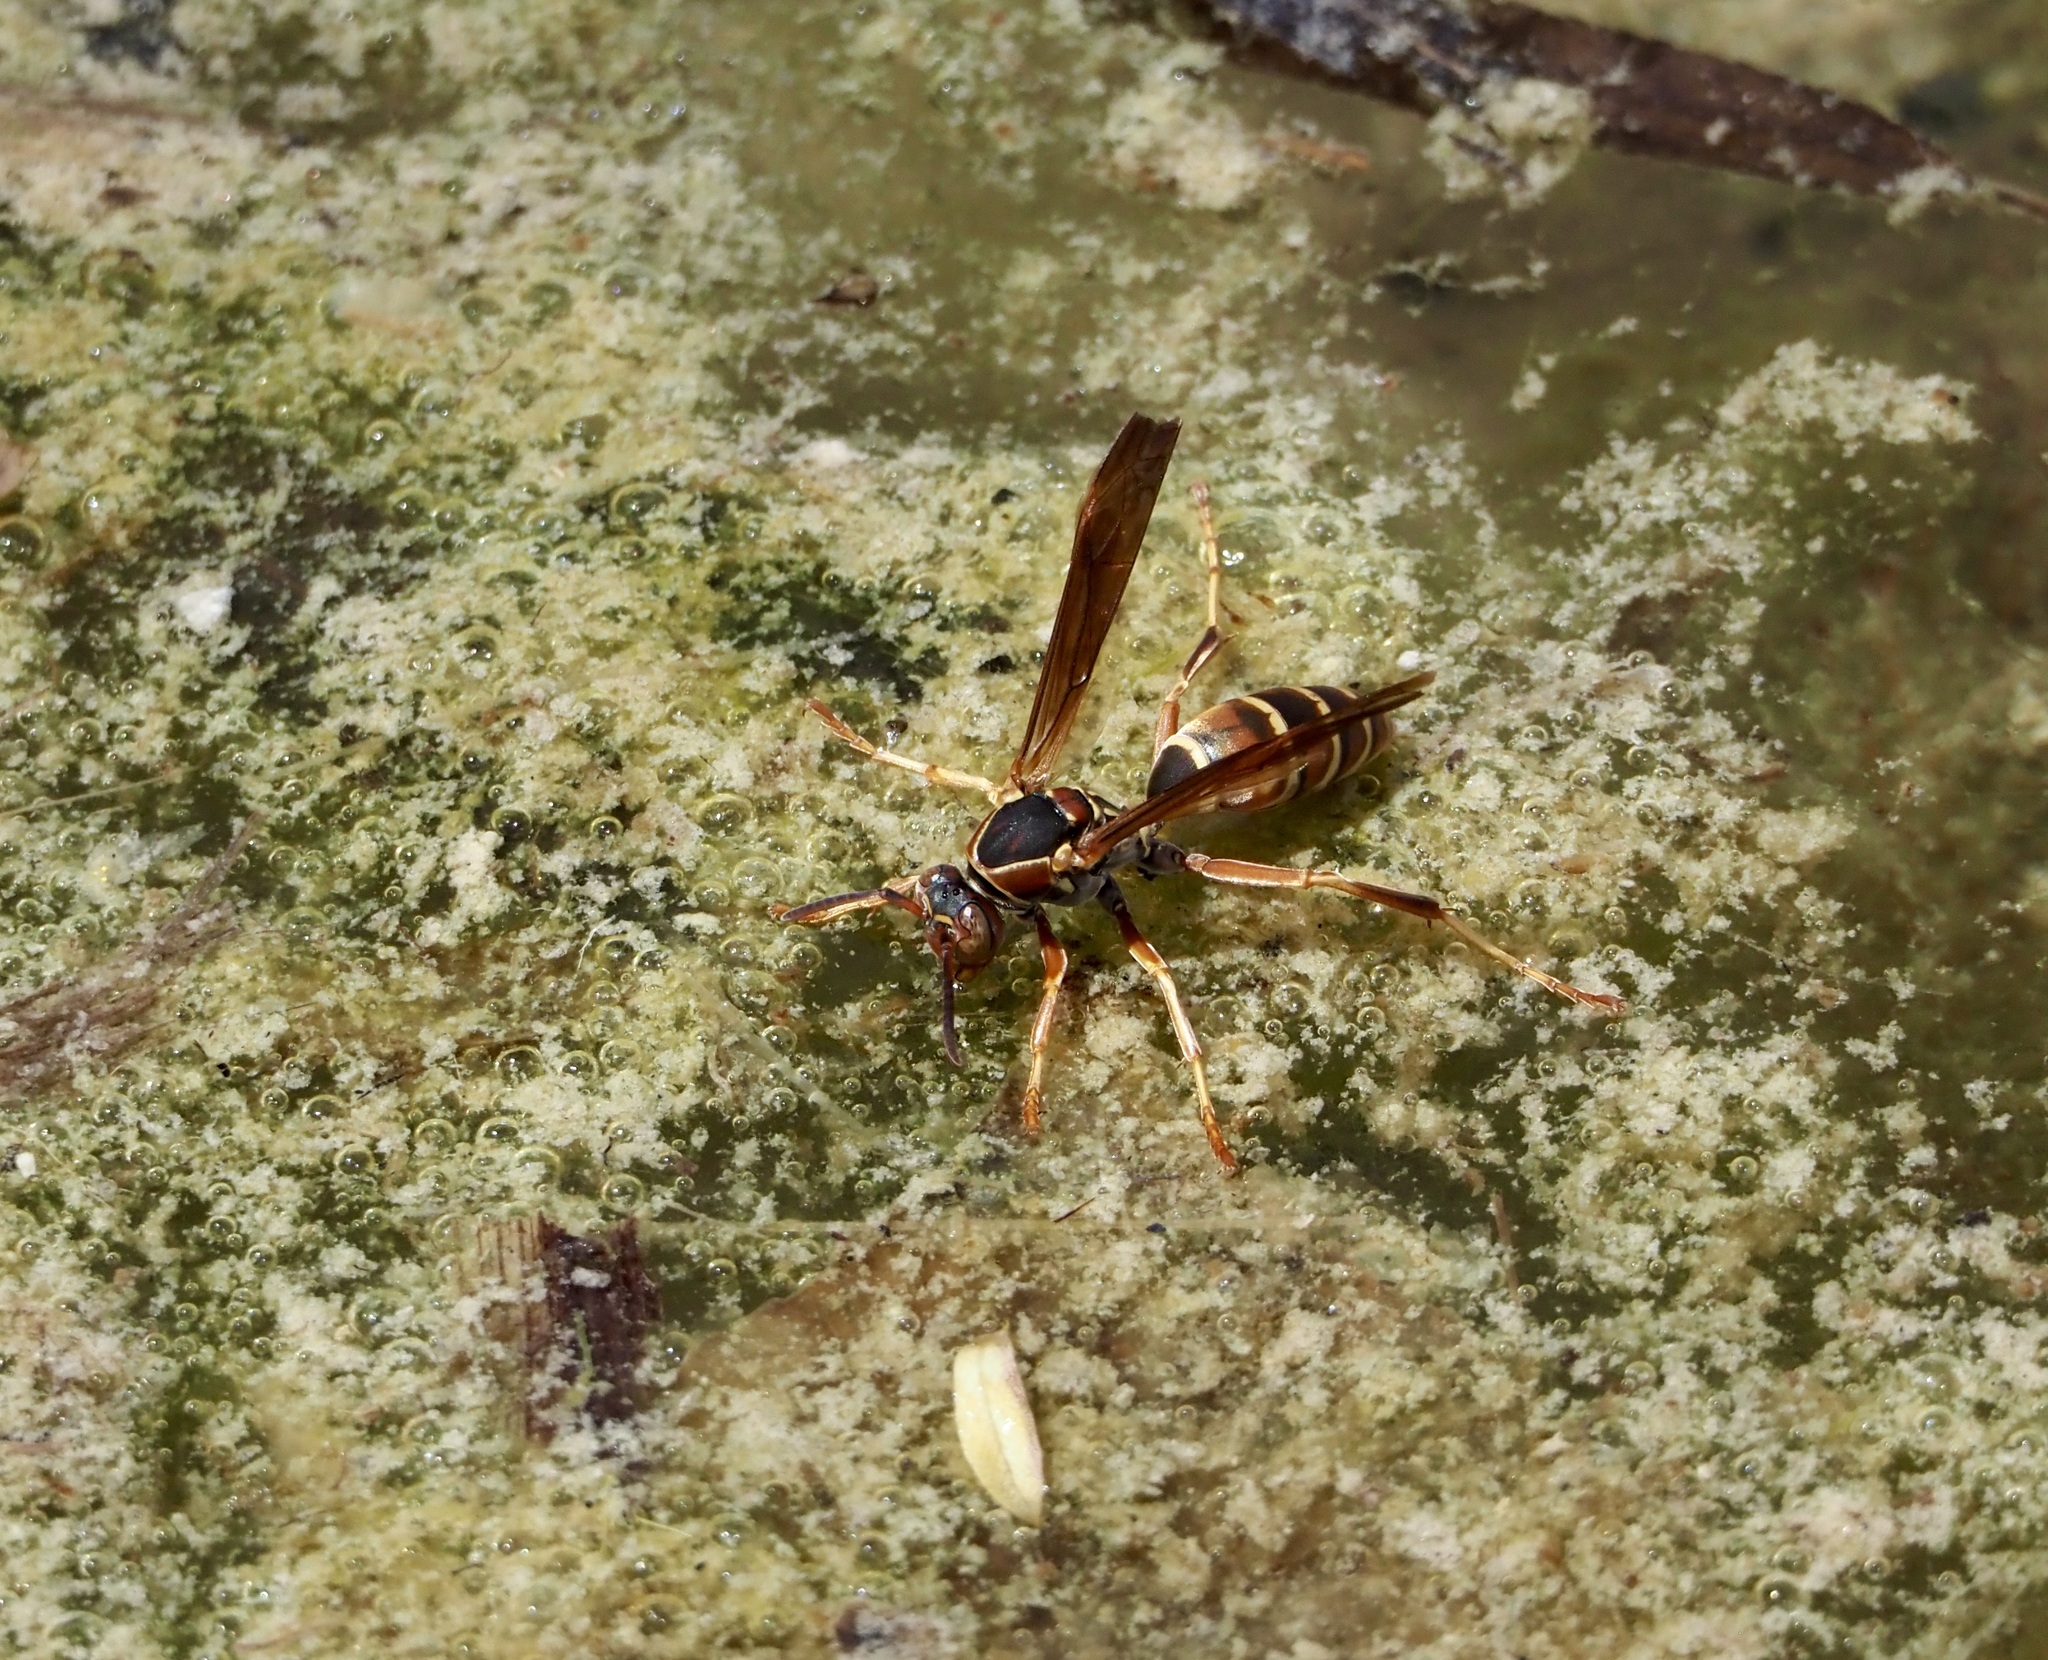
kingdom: Animalia
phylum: Arthropoda
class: Insecta
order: Hymenoptera
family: Eumenidae
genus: Polistes
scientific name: Polistes dorsalis
